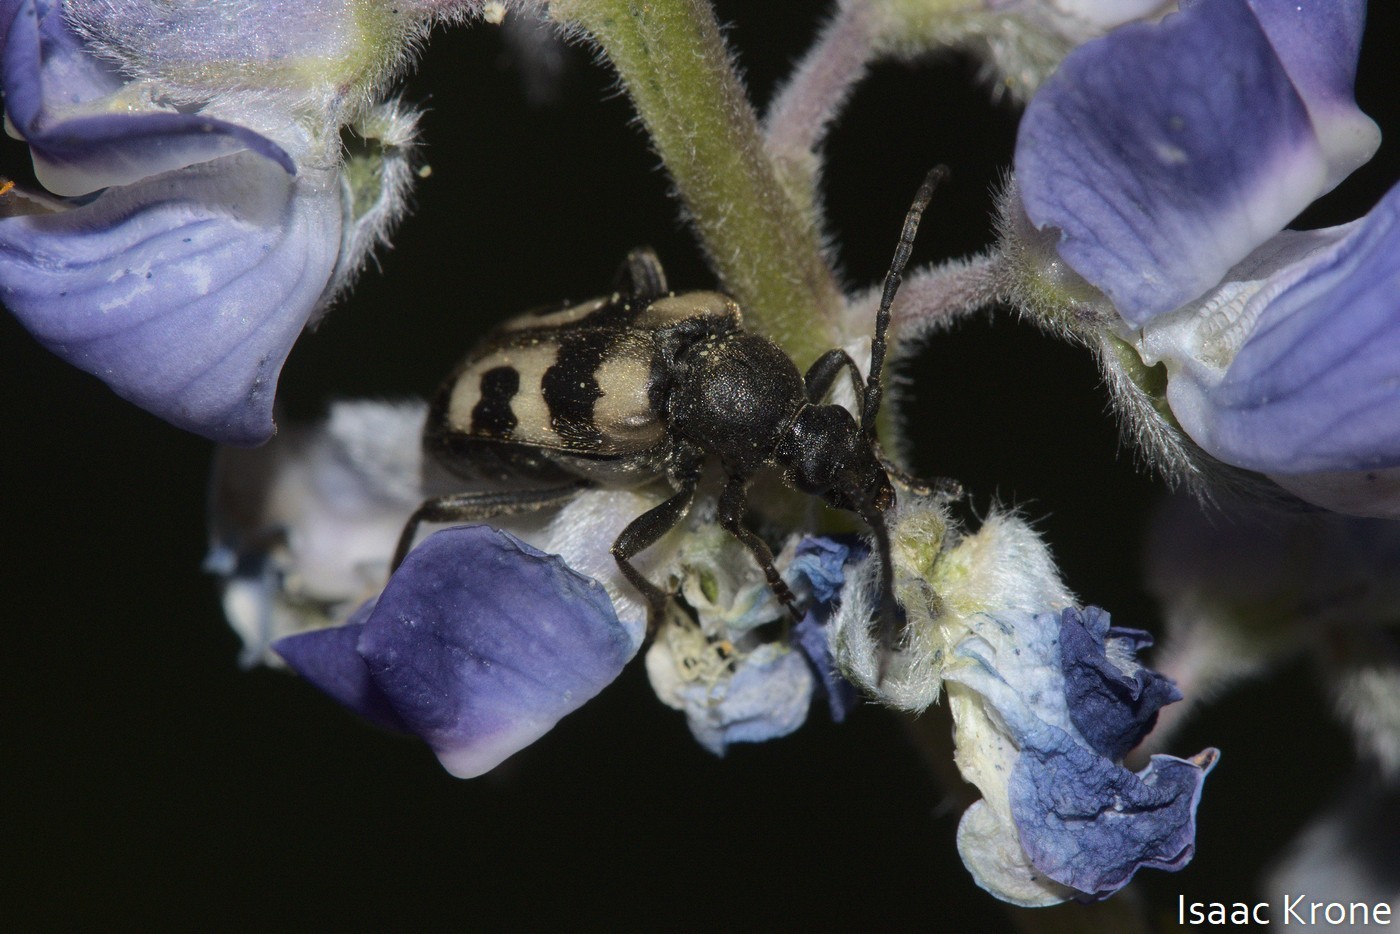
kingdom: Animalia
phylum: Arthropoda
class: Insecta
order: Coleoptera
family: Cerambycidae
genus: Judolia
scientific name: Judolia instabilis
